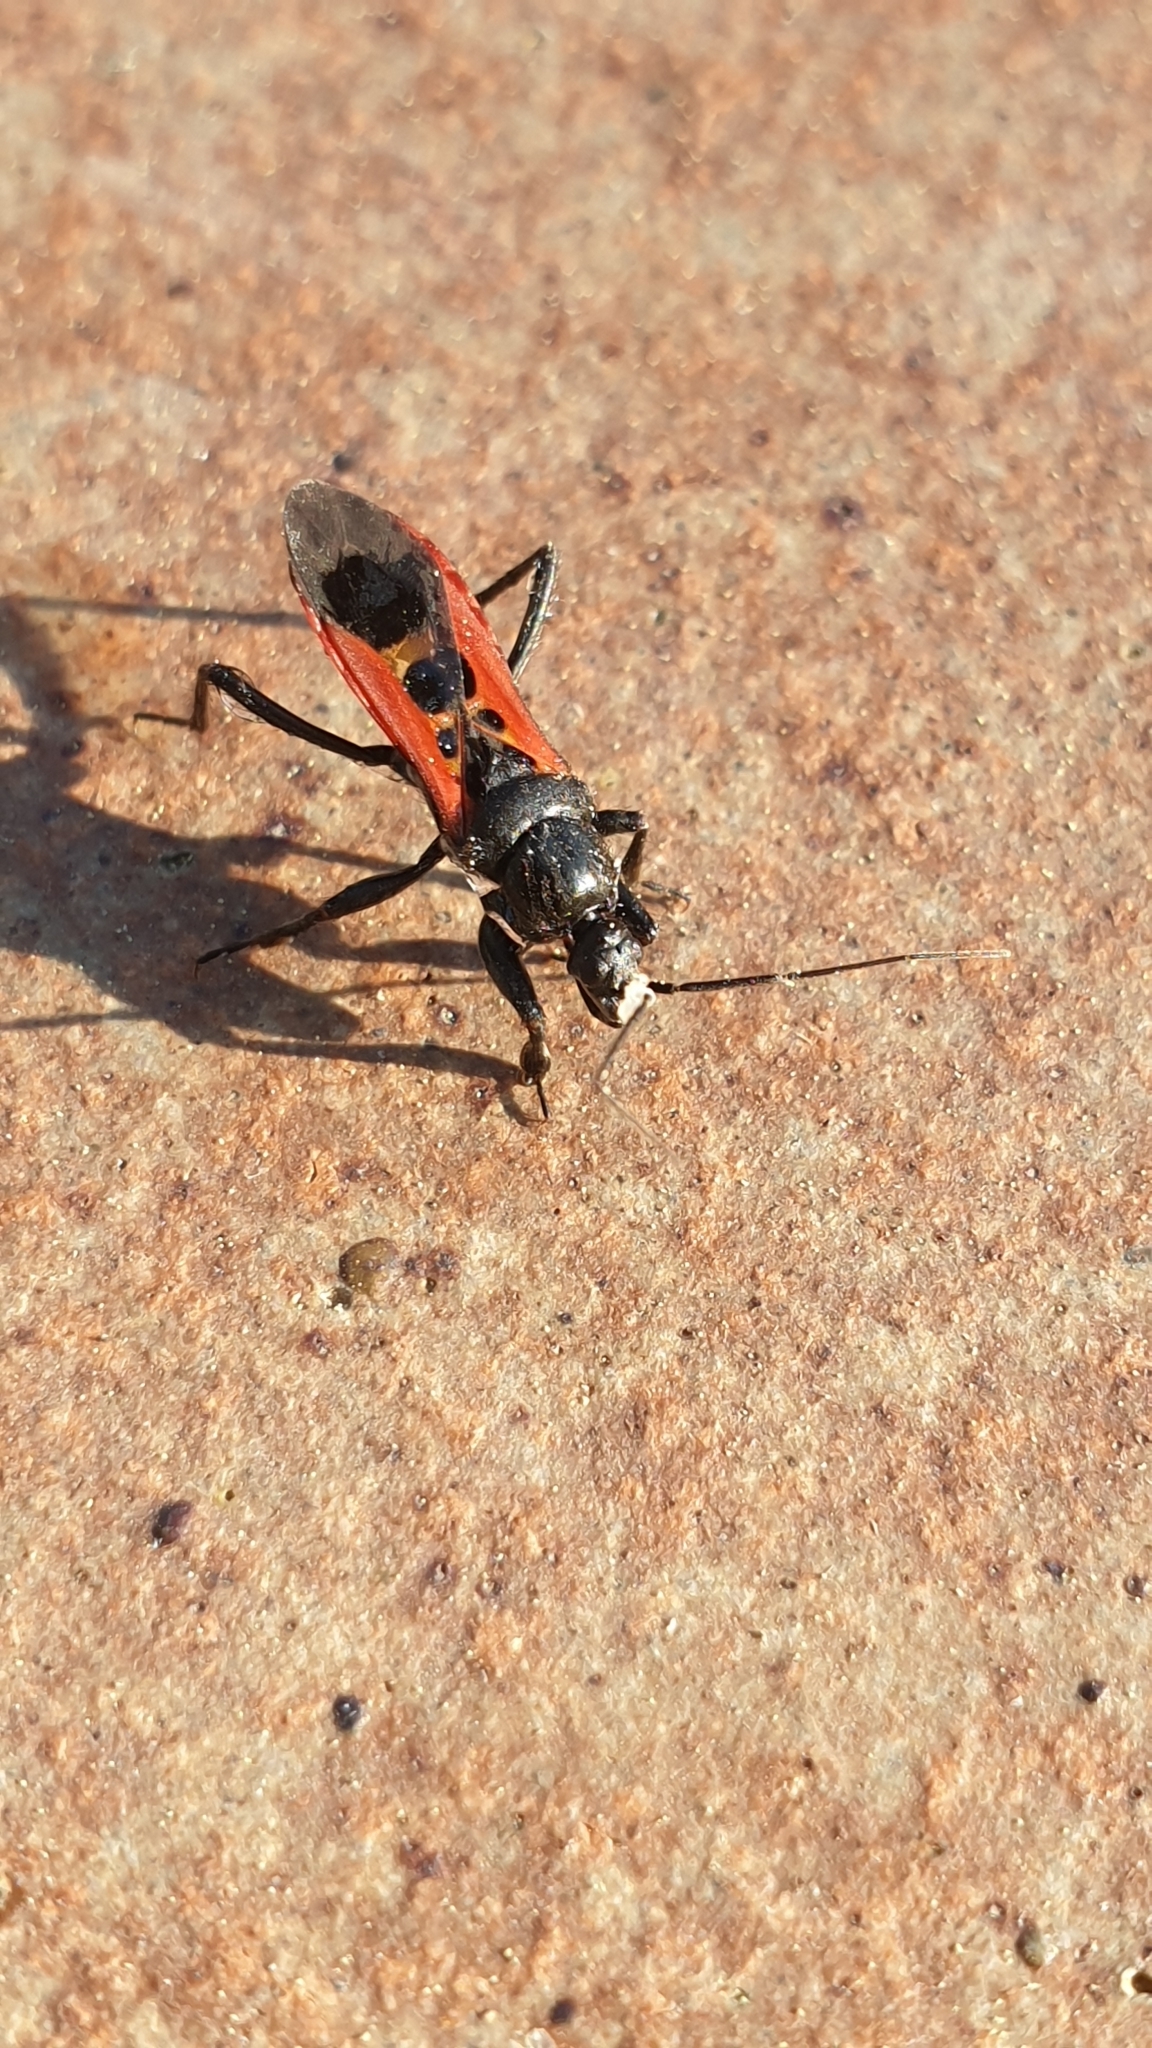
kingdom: Animalia
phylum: Arthropoda
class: Insecta
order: Hemiptera
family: Reduviidae
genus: Peirates
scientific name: Peirates stridulus
